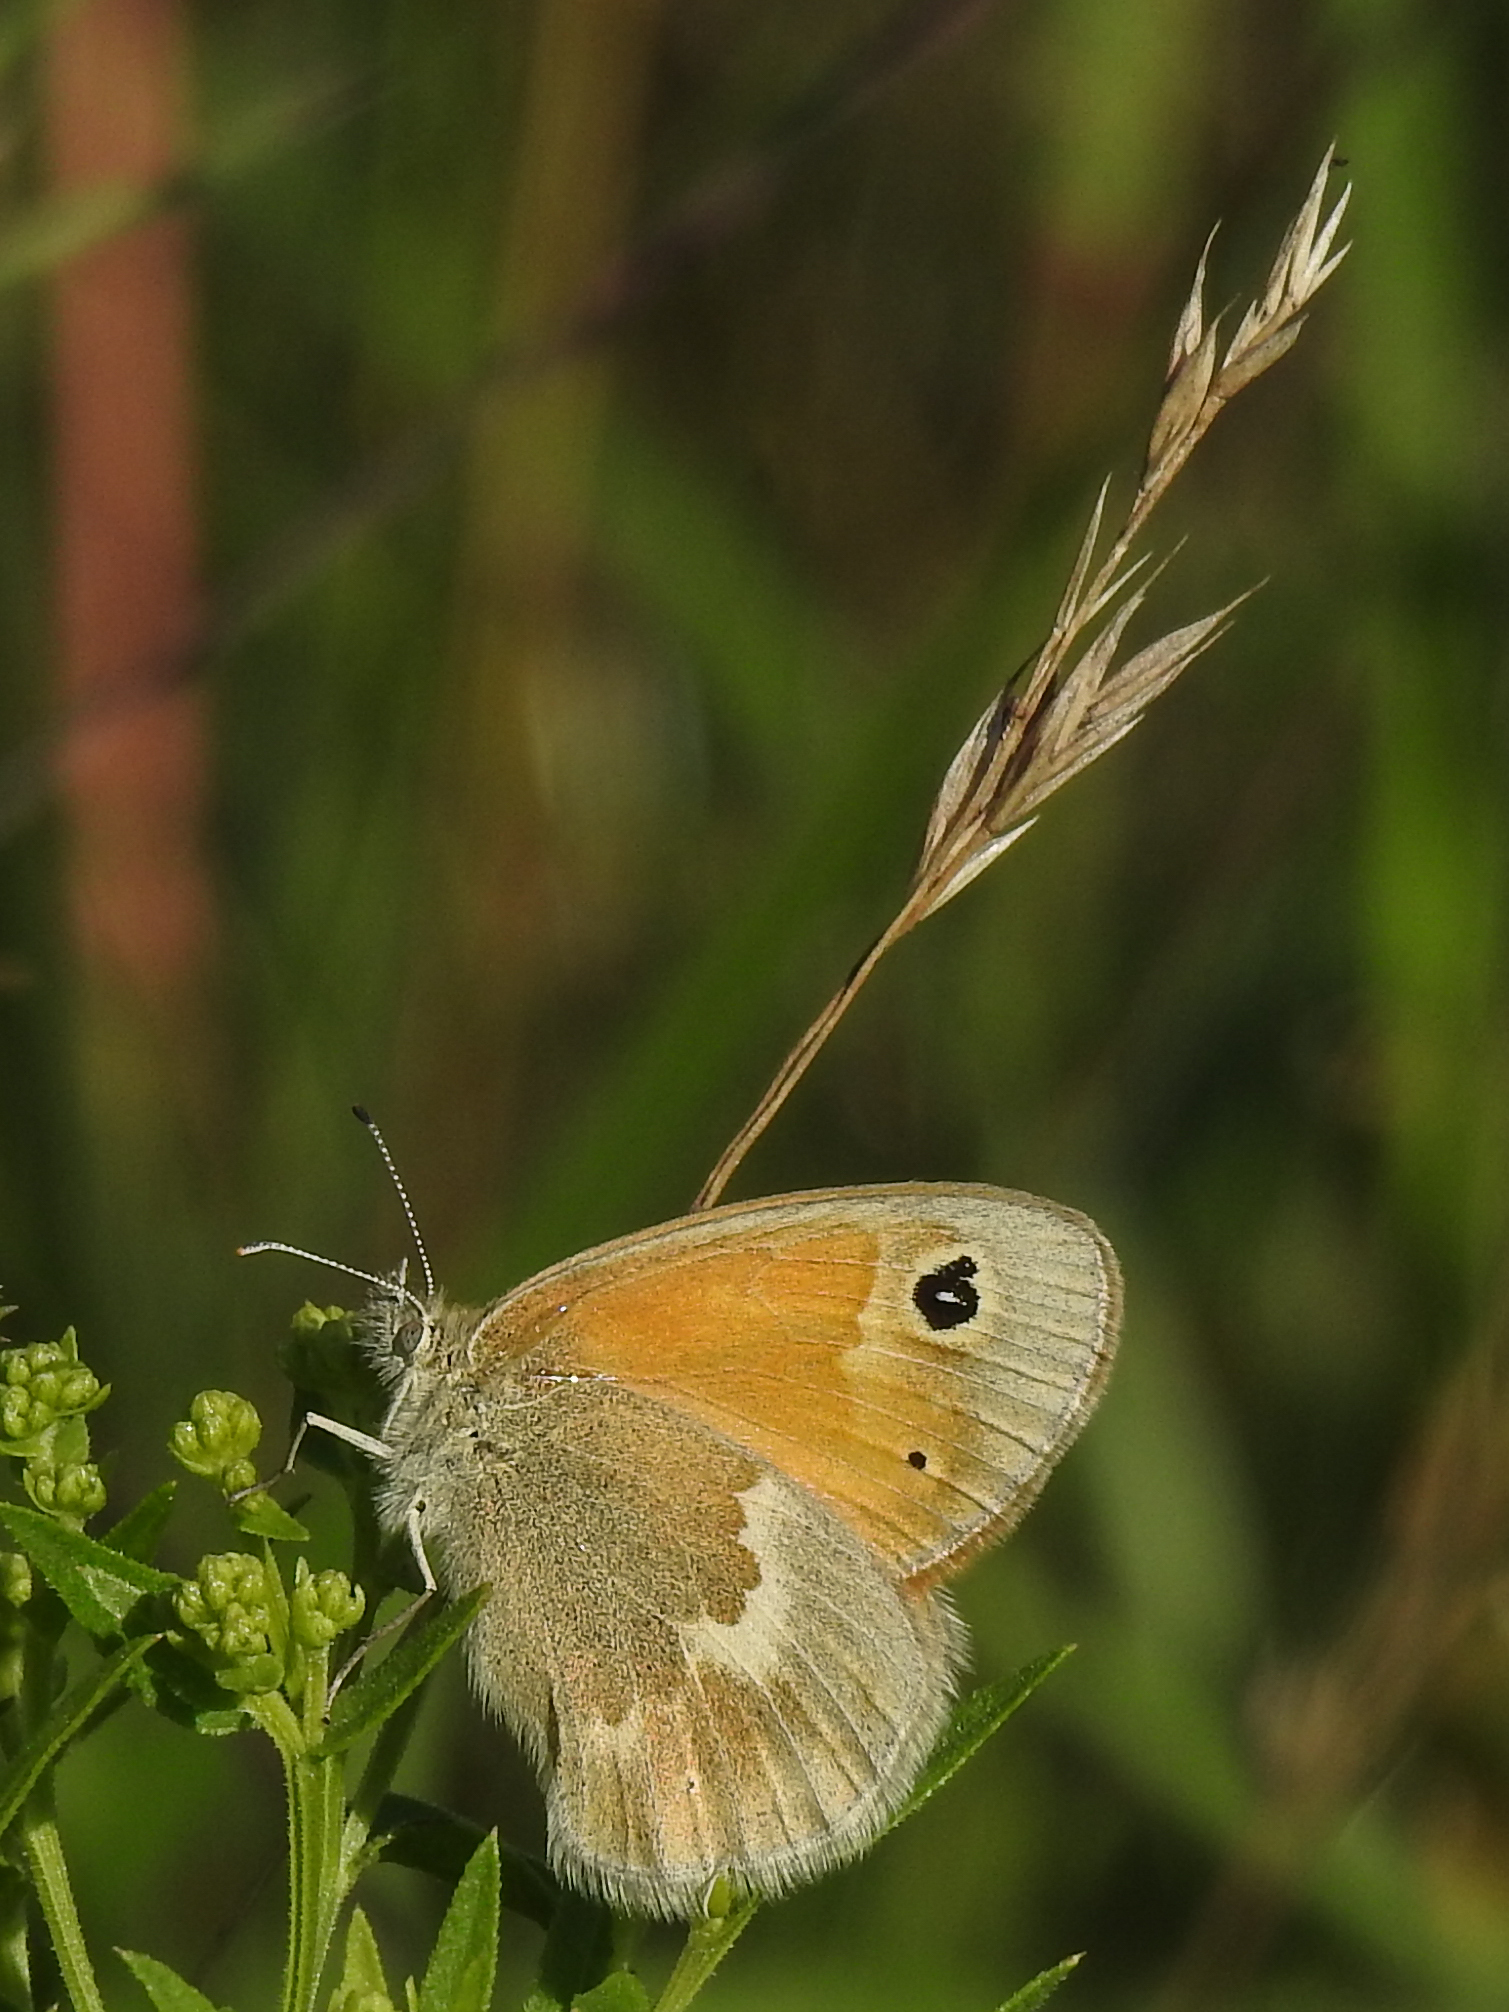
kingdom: Animalia
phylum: Arthropoda
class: Insecta
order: Lepidoptera
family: Nymphalidae
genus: Coenonympha
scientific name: Coenonympha california
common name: Common ringlet
